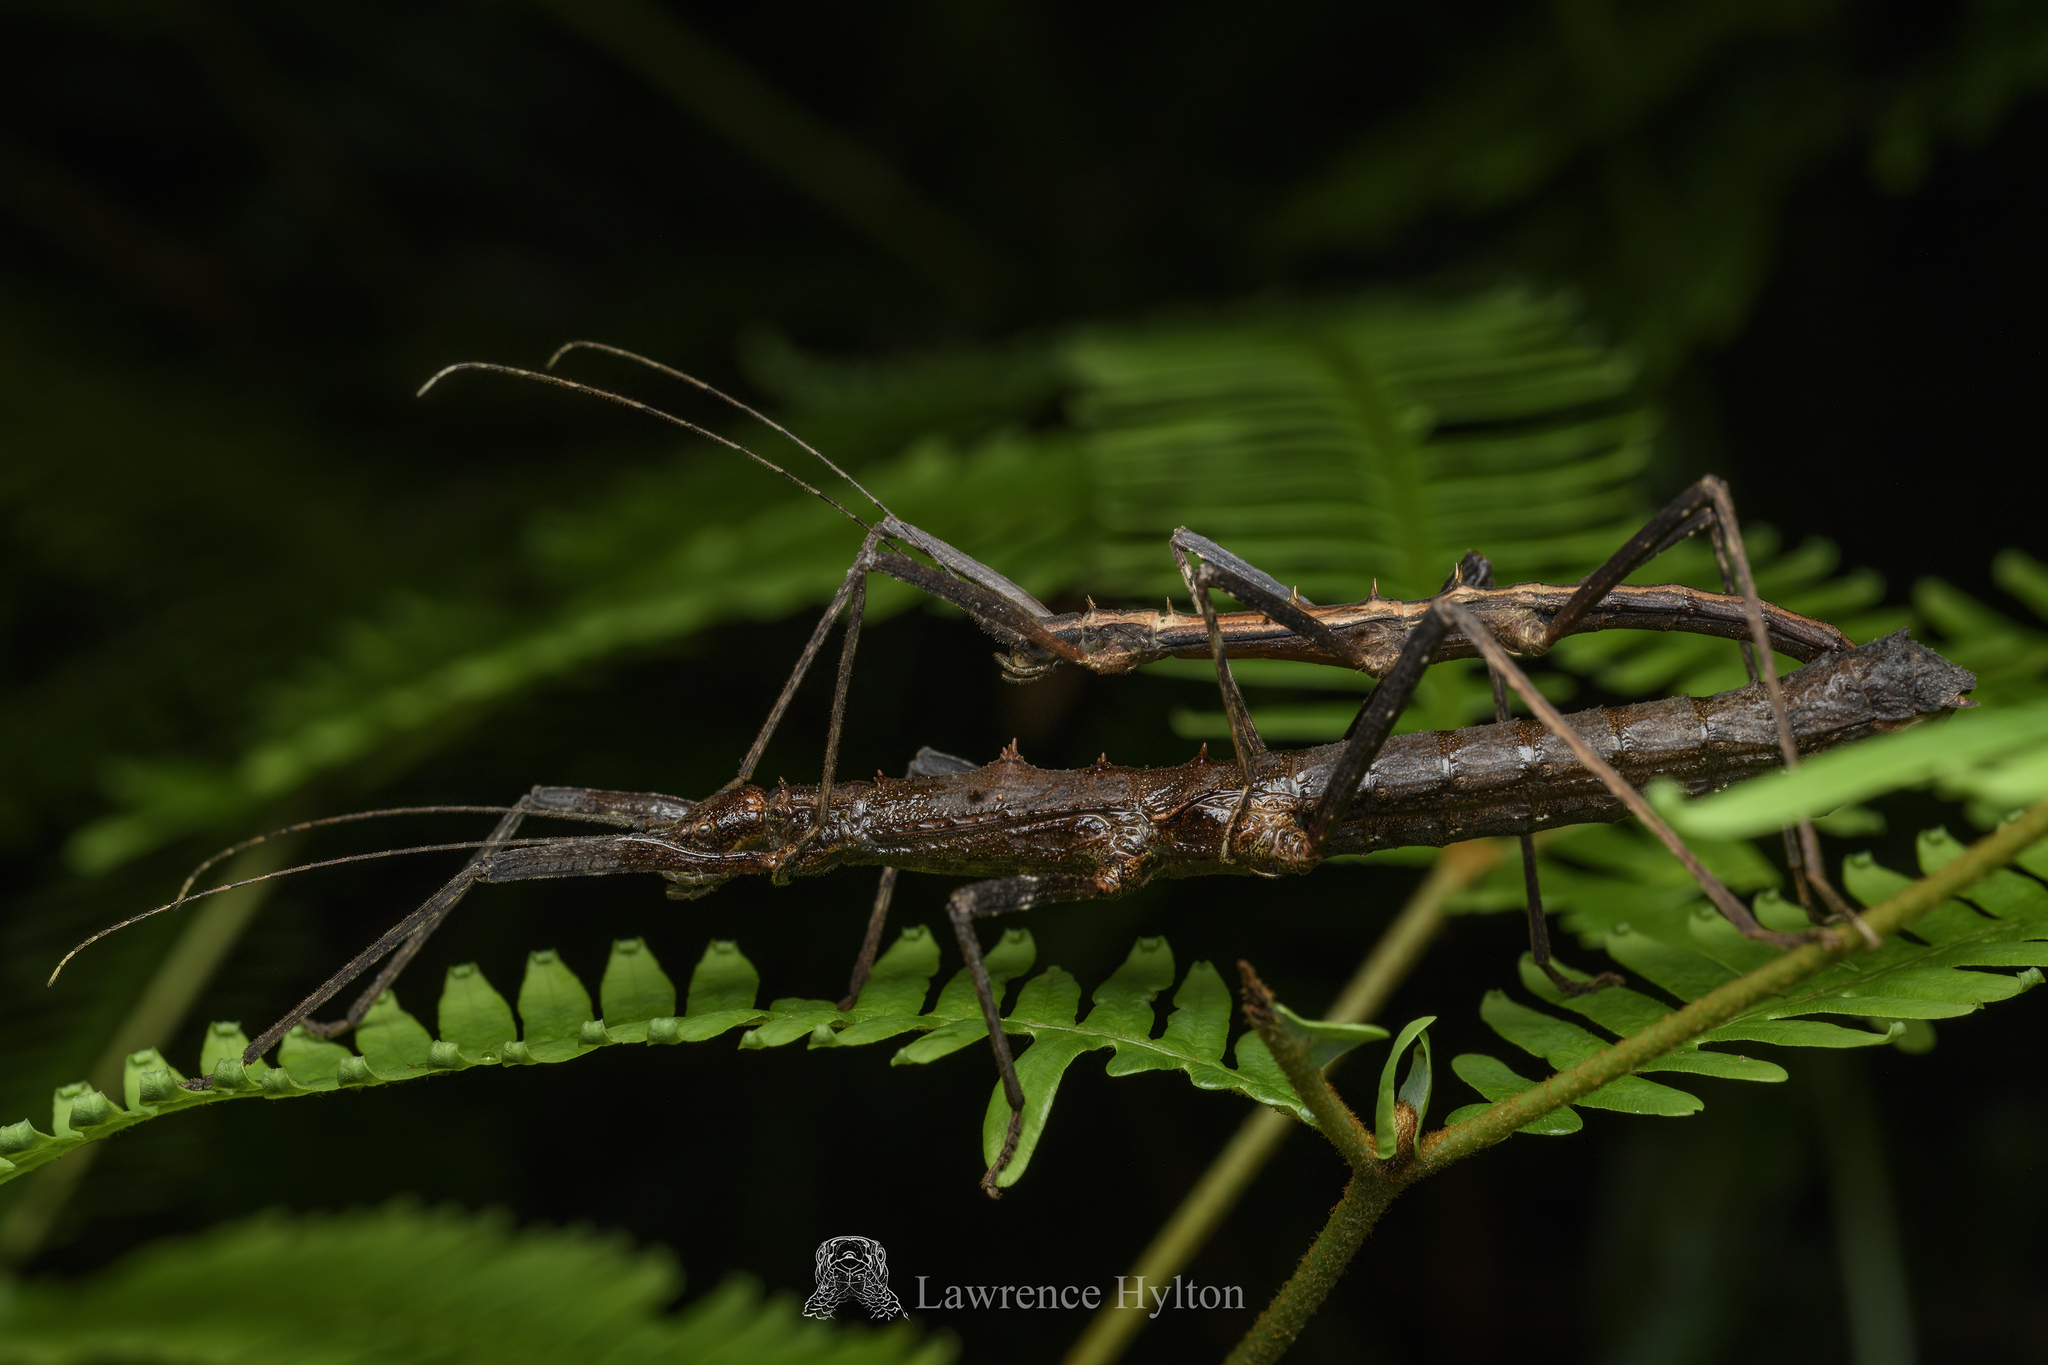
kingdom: Animalia
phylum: Arthropoda
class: Insecta
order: Phasmida
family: Lonchodidae
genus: Neohirasea
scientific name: Neohirasea hongkongensis
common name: Hong kong spiny stick insect
